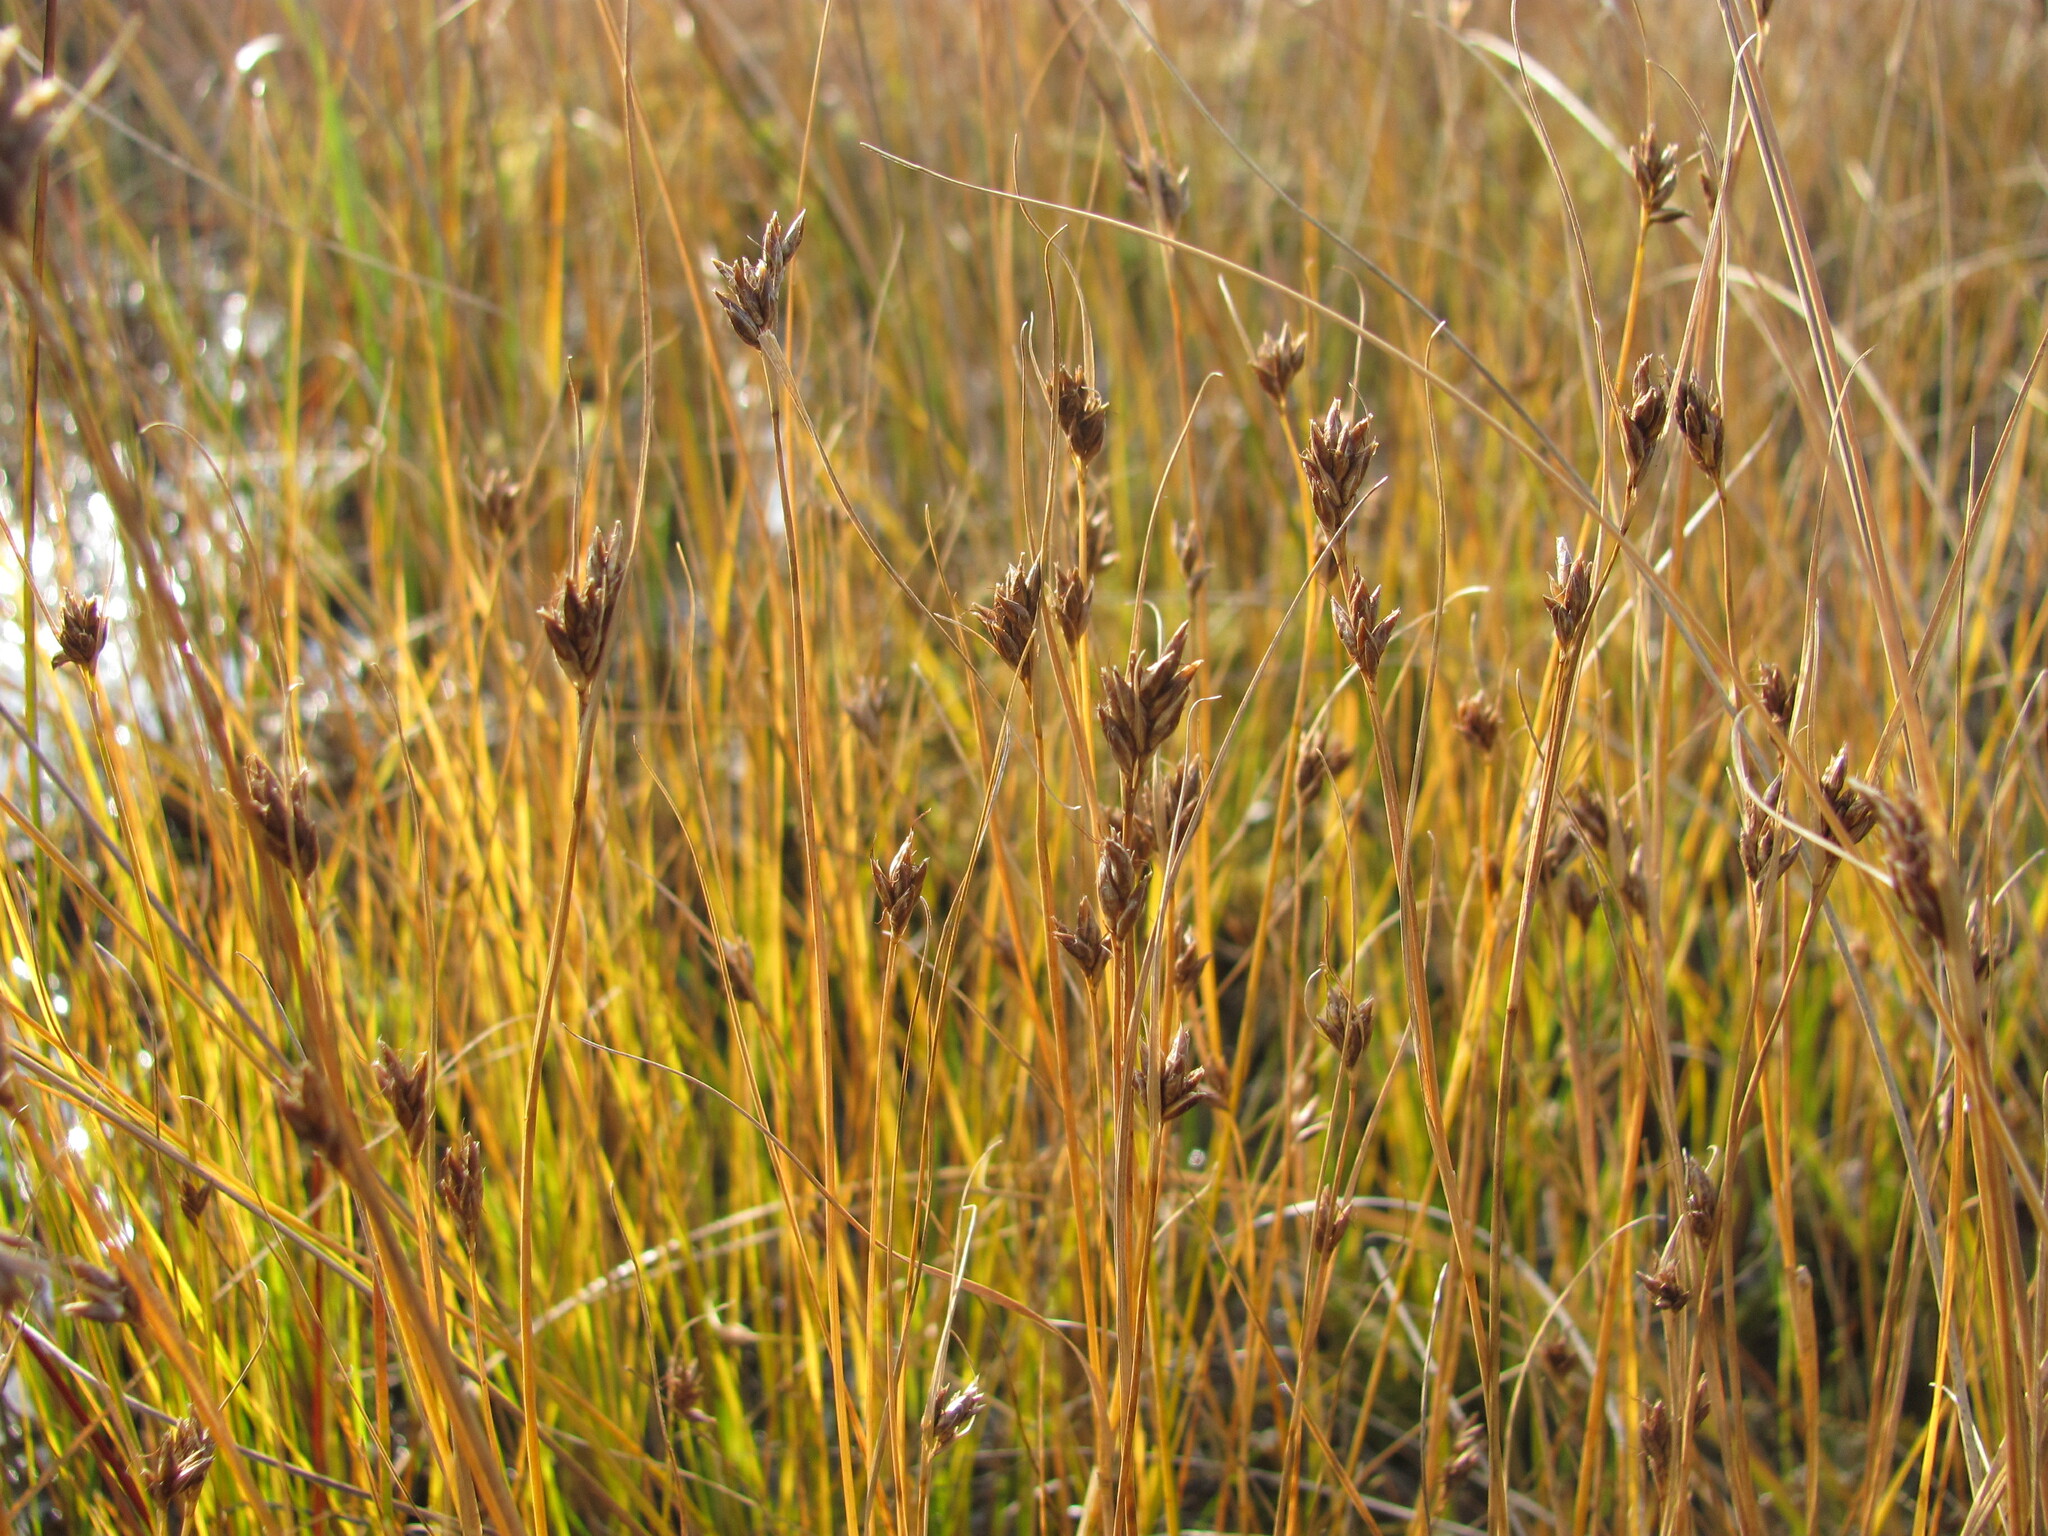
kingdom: Plantae
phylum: Tracheophyta
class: Liliopsida
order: Poales
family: Cyperaceae
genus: Rhynchospora
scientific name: Rhynchospora fusca
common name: Brown beak-sedge
